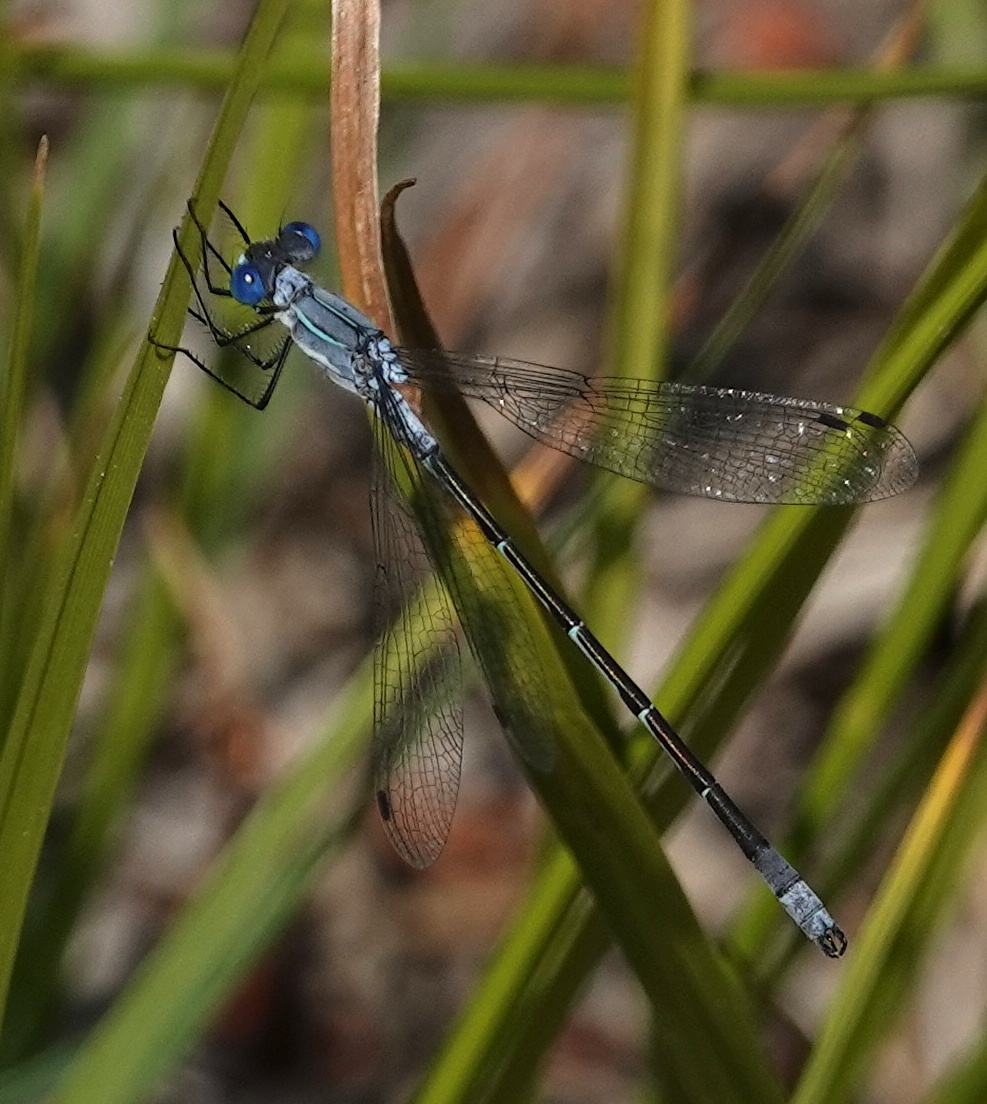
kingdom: Animalia
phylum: Arthropoda
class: Insecta
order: Odonata
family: Lestidae
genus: Lestes
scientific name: Lestes disjunctus
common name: Northern spreadwing
